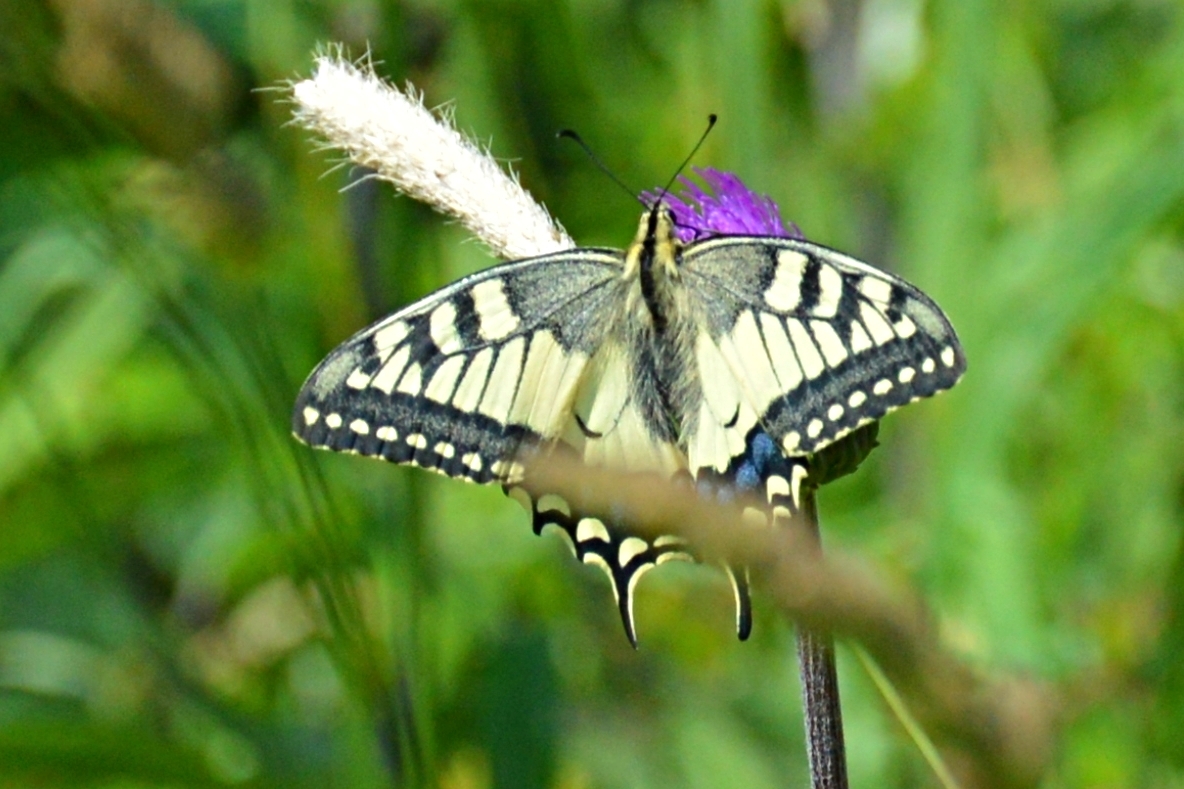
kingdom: Animalia
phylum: Arthropoda
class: Insecta
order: Lepidoptera
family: Papilionidae
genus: Papilio
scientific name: Papilio machaon
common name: Swallowtail
